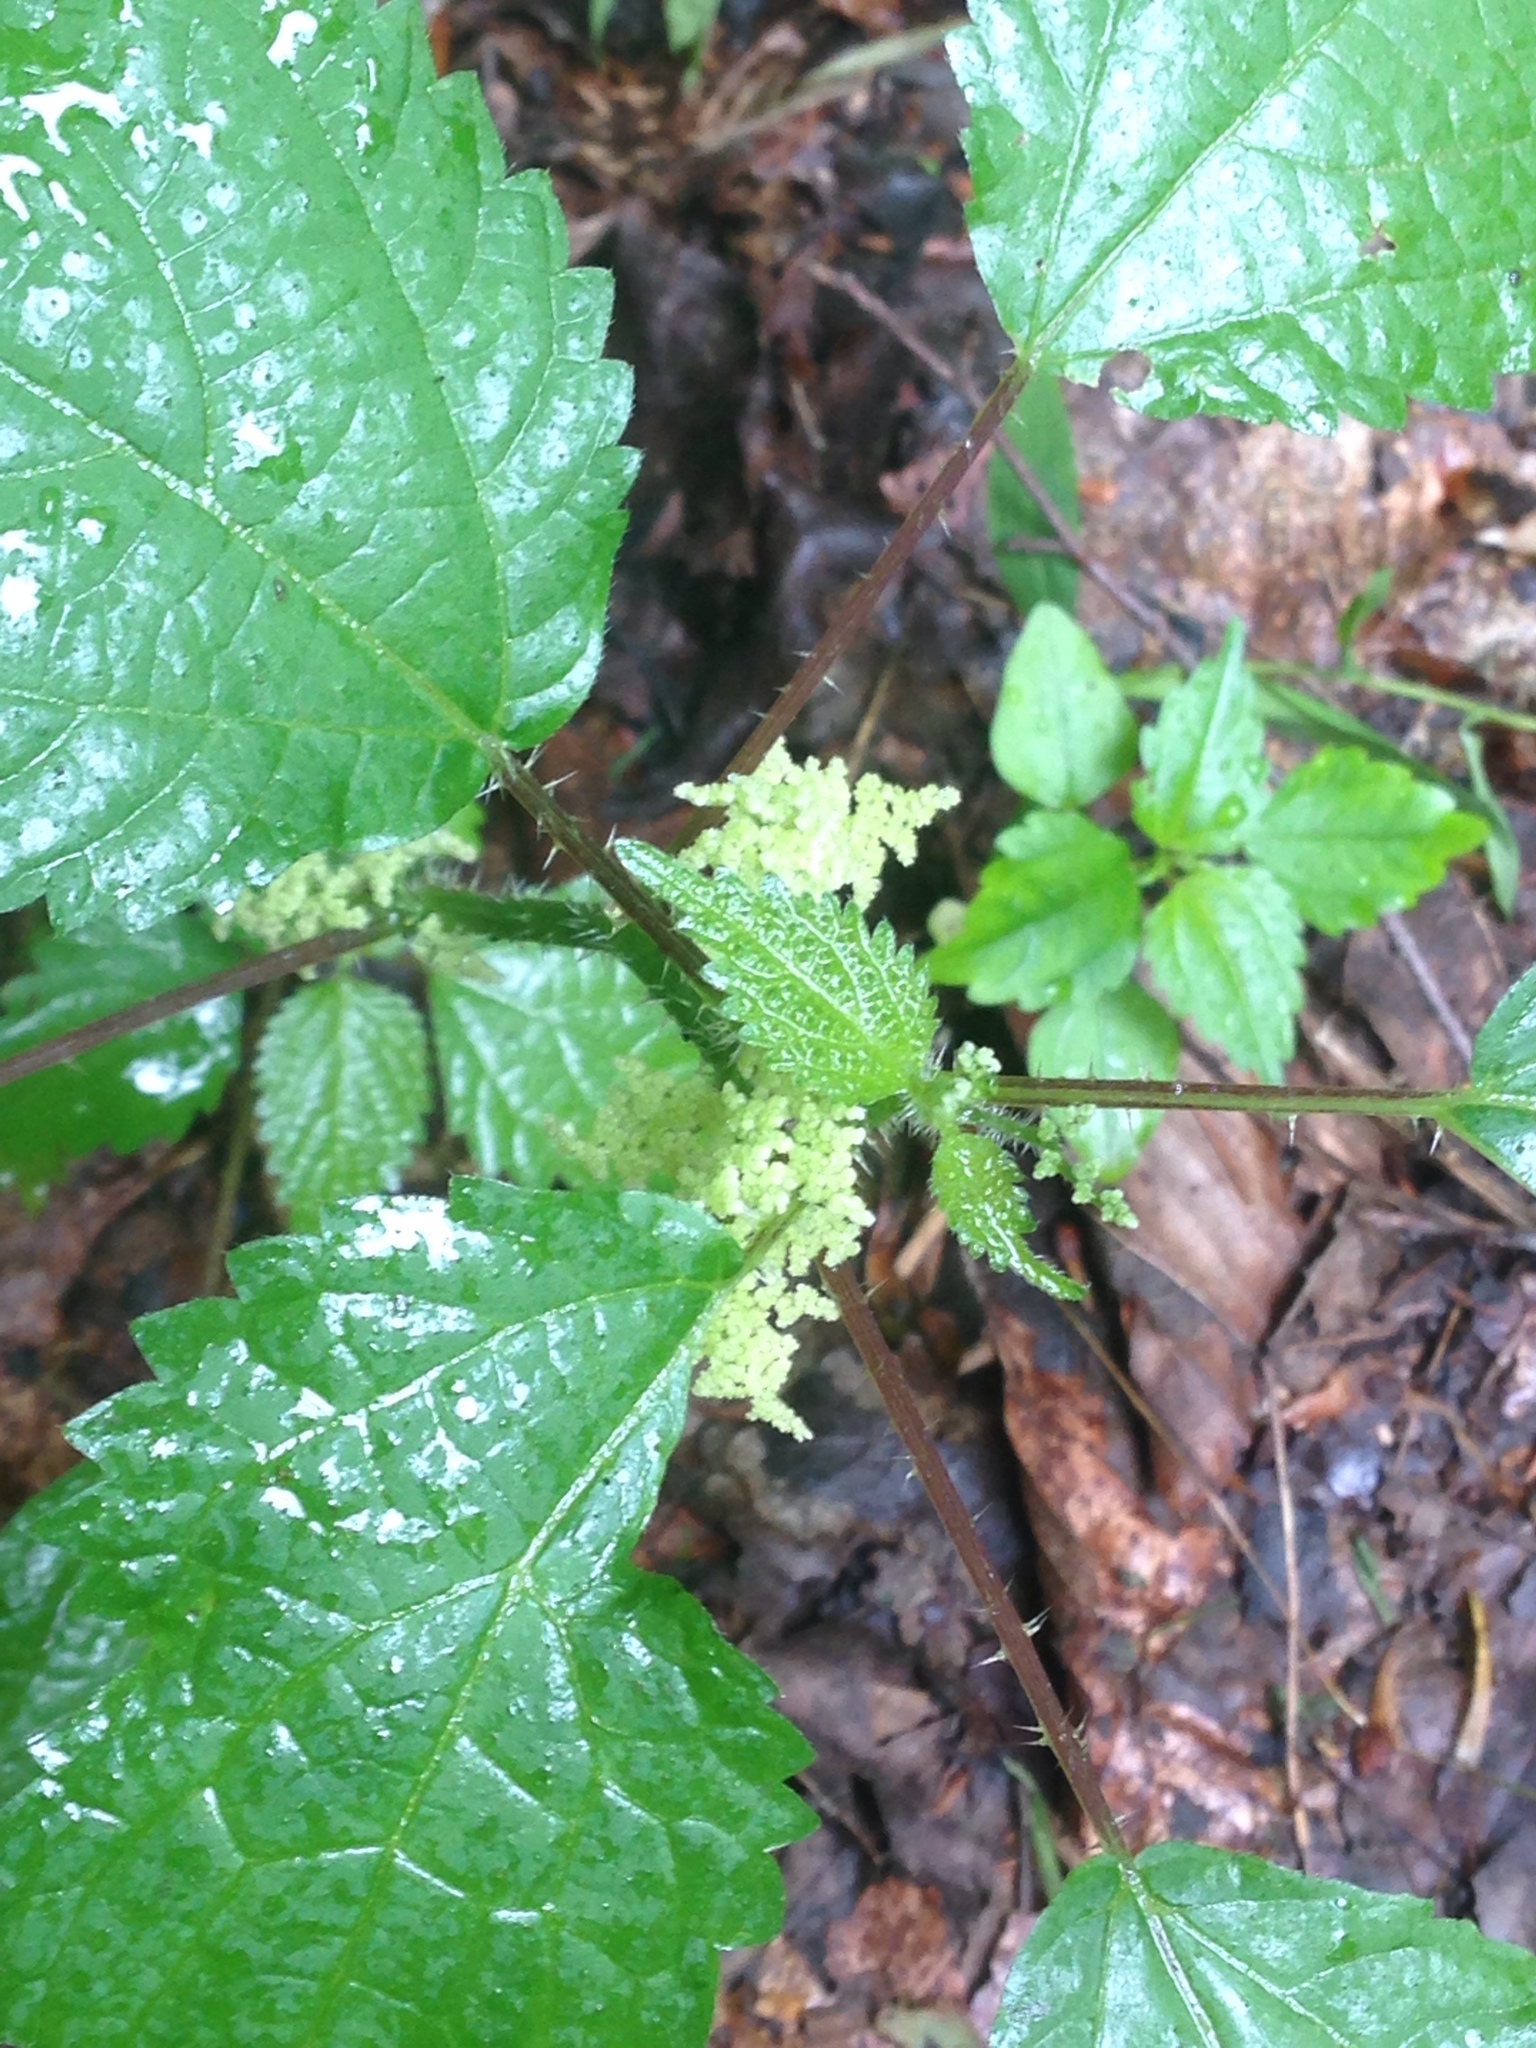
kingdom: Plantae
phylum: Tracheophyta
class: Magnoliopsida
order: Rosales
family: Urticaceae
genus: Laportea
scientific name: Laportea canadensis
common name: Canada nettle
